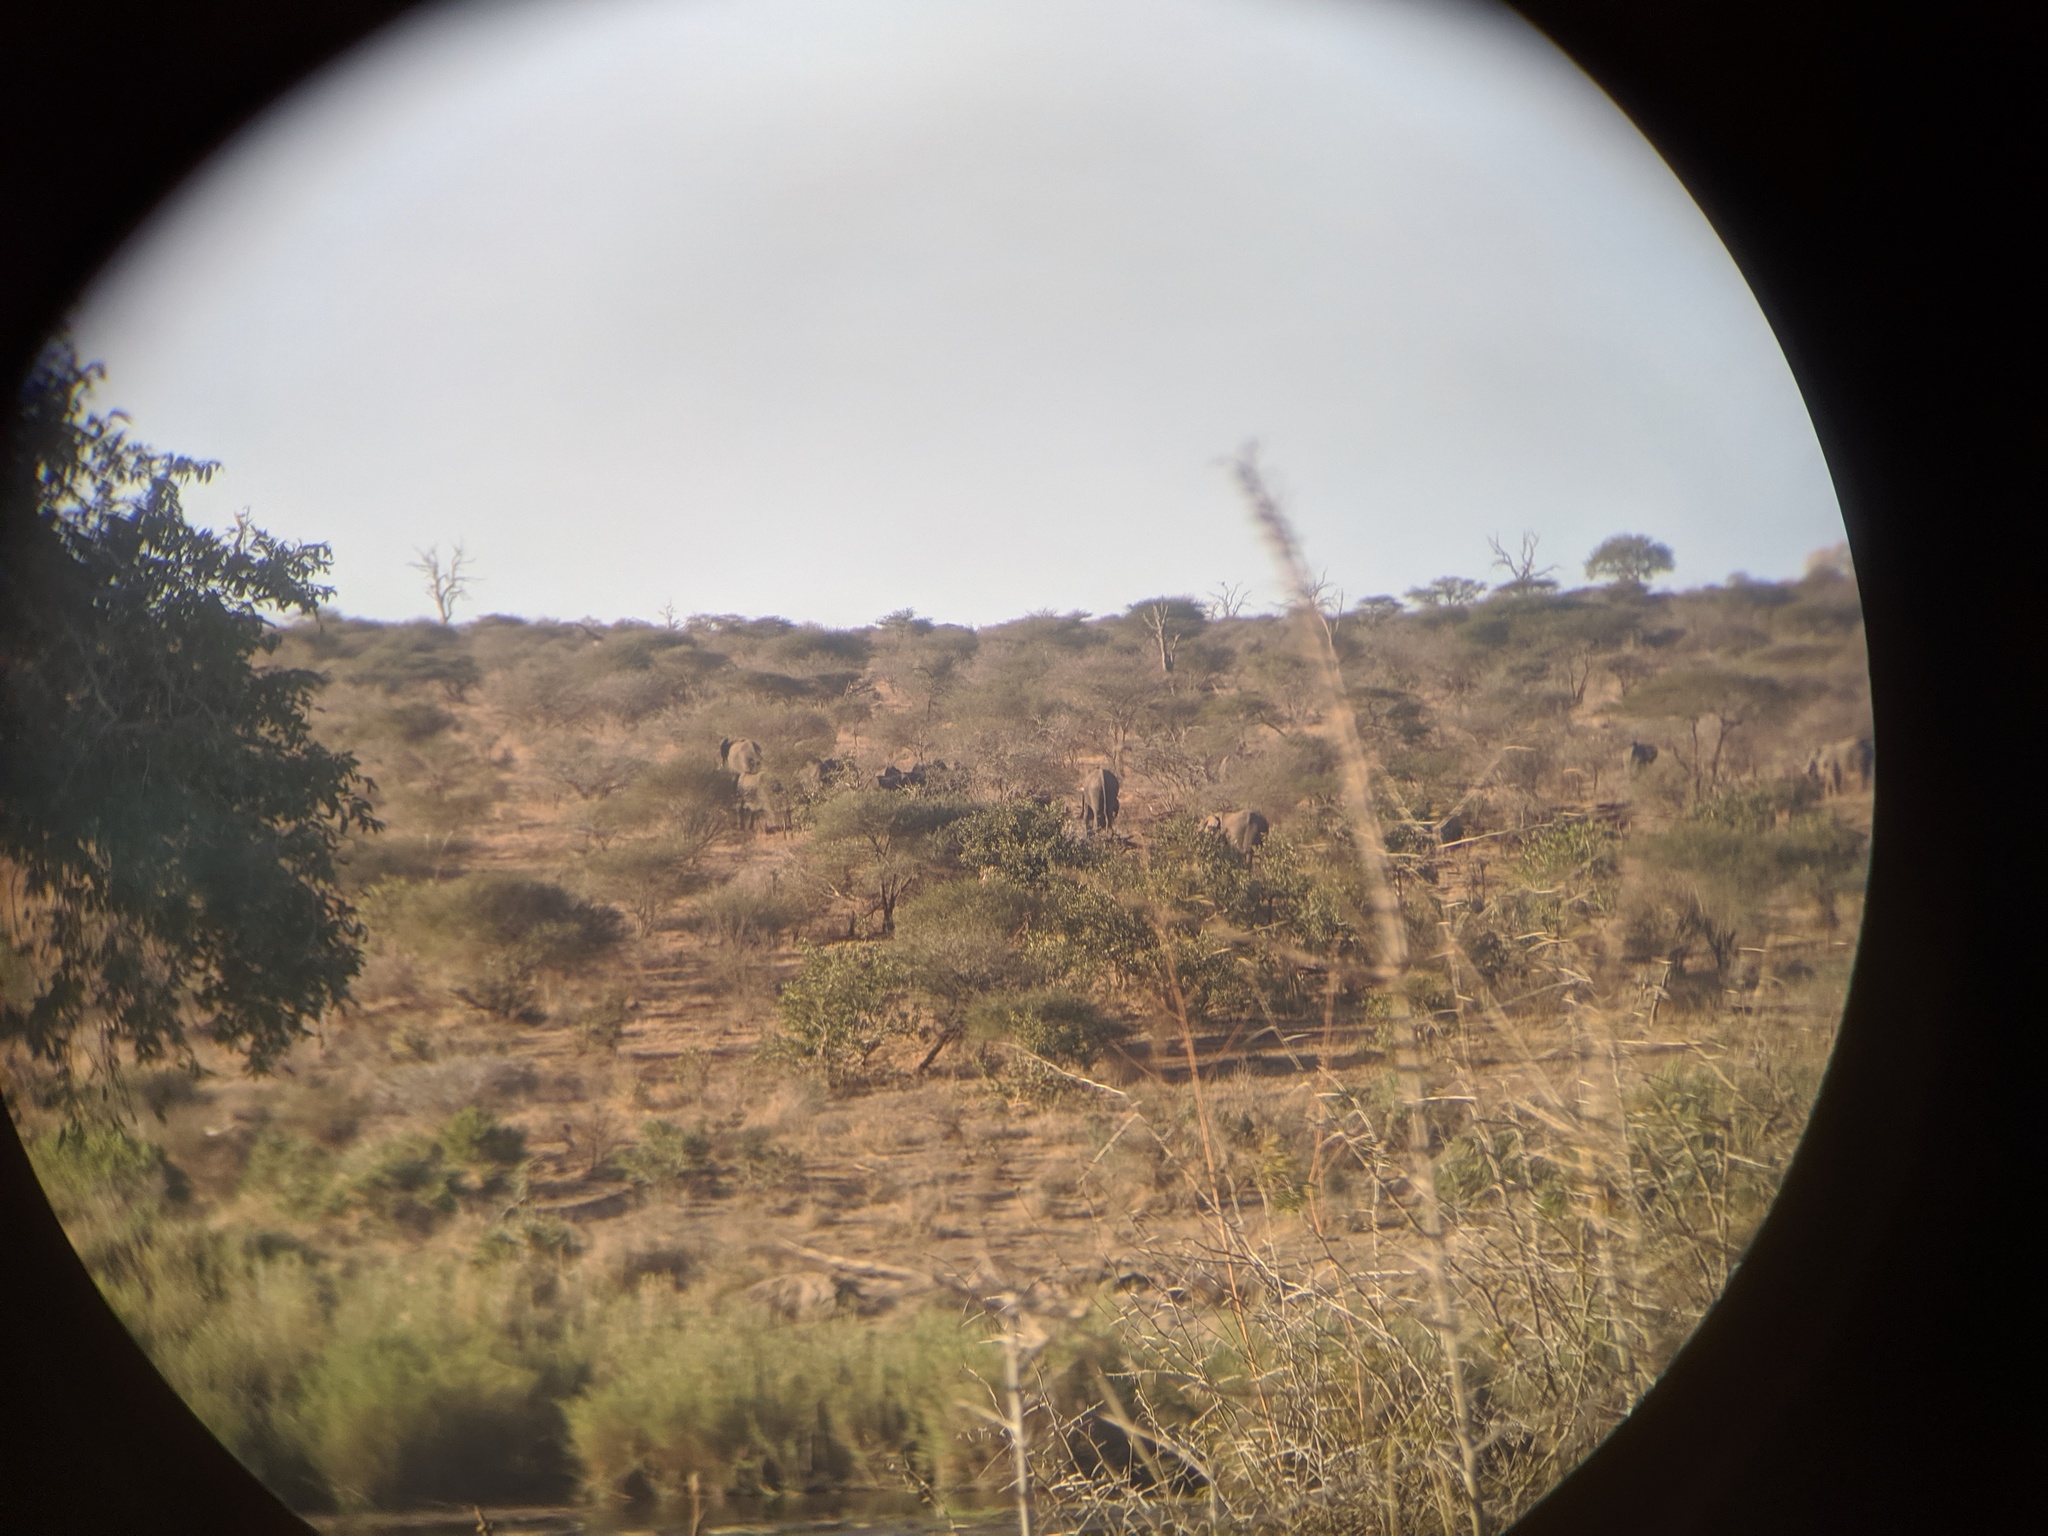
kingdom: Animalia
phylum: Chordata
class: Mammalia
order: Proboscidea
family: Elephantidae
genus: Loxodonta
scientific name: Loxodonta africana
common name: African elephant
